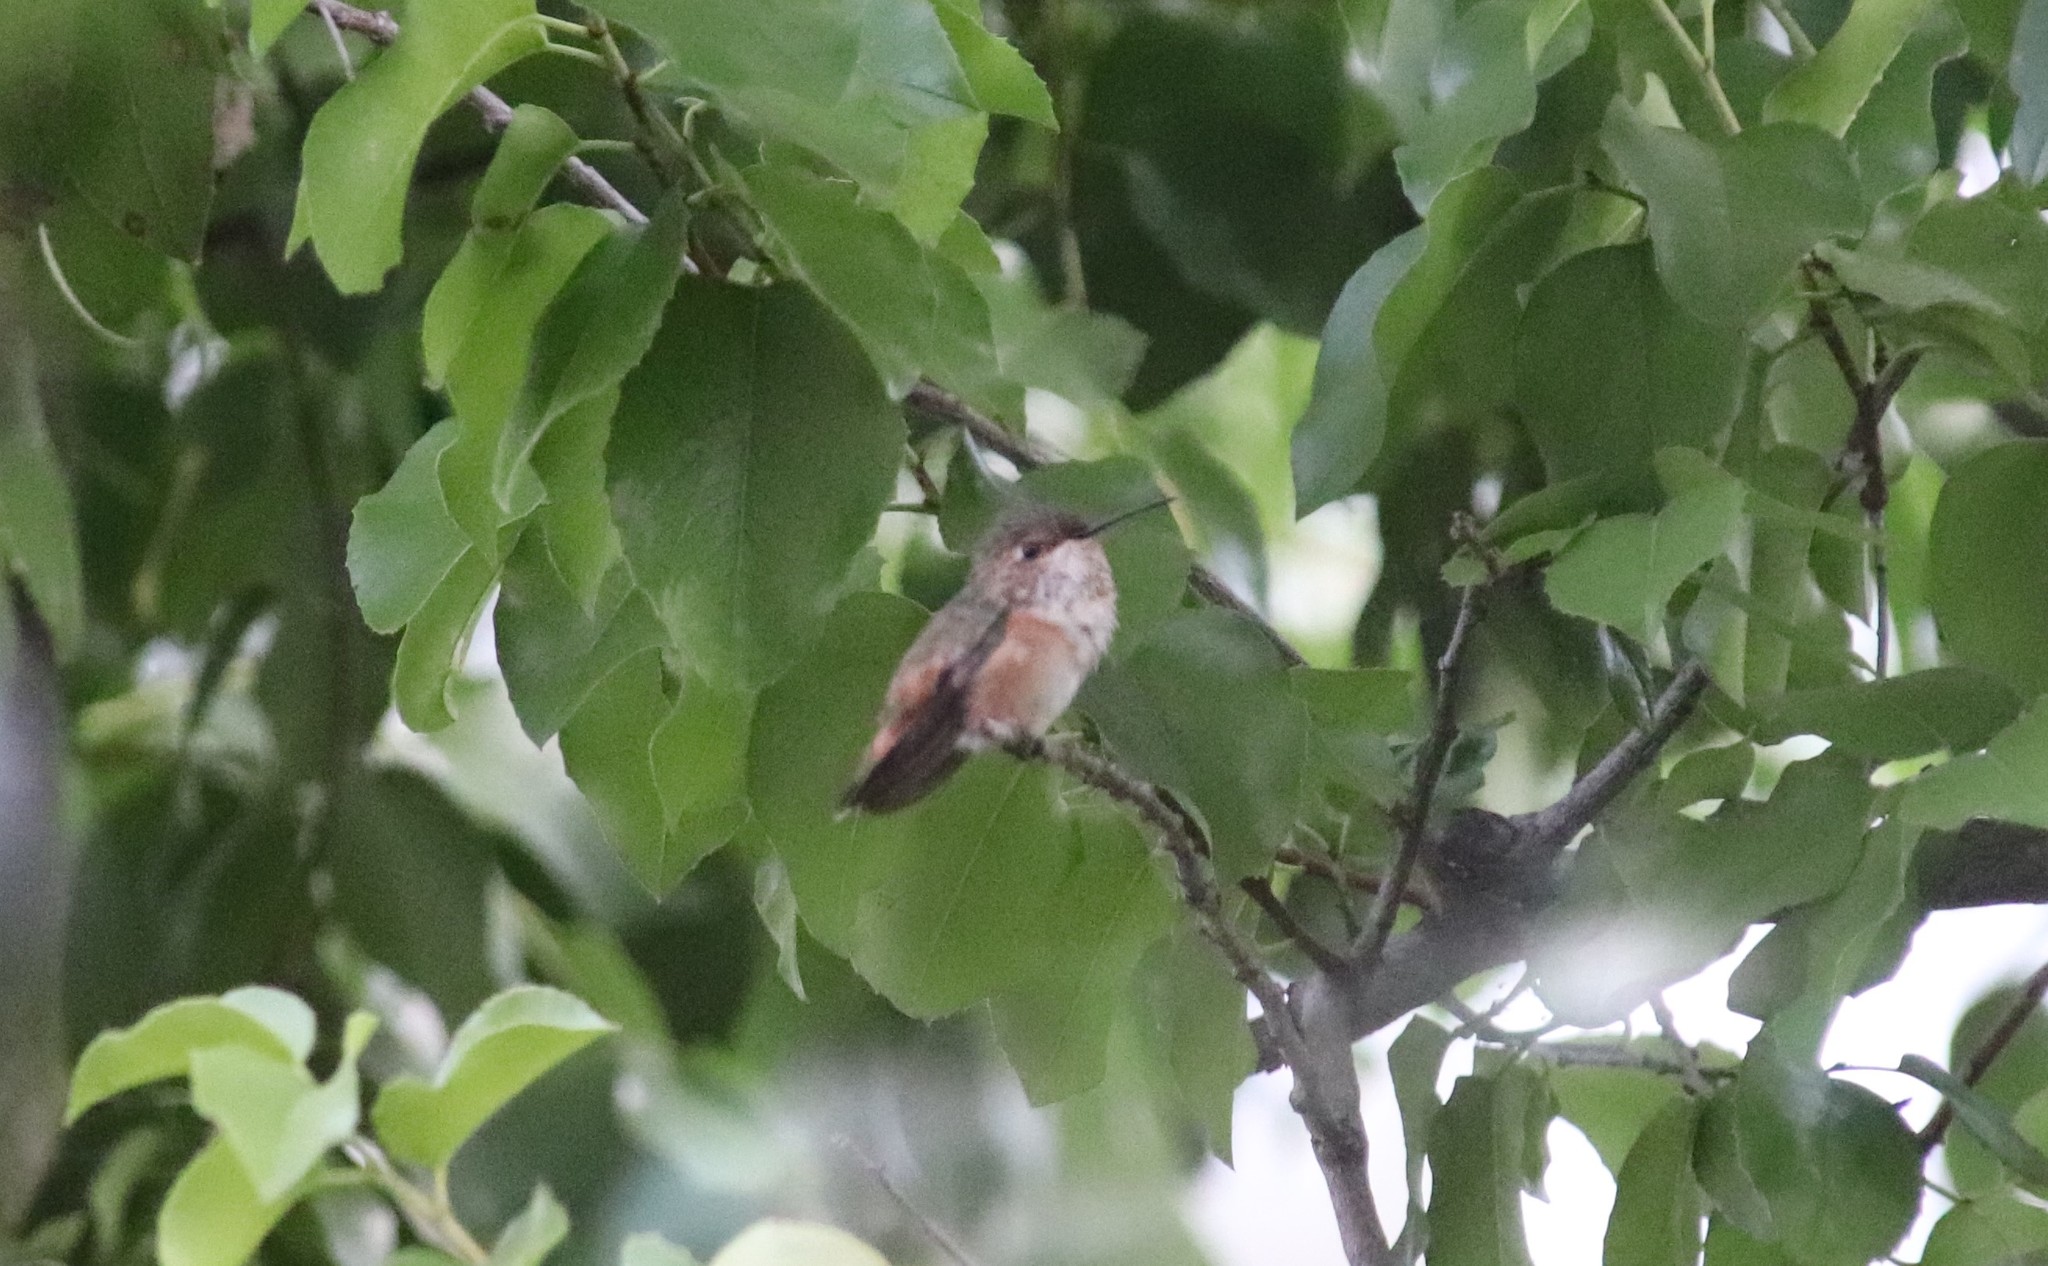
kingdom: Animalia
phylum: Chordata
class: Aves
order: Apodiformes
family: Trochilidae
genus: Selasphorus
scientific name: Selasphorus
